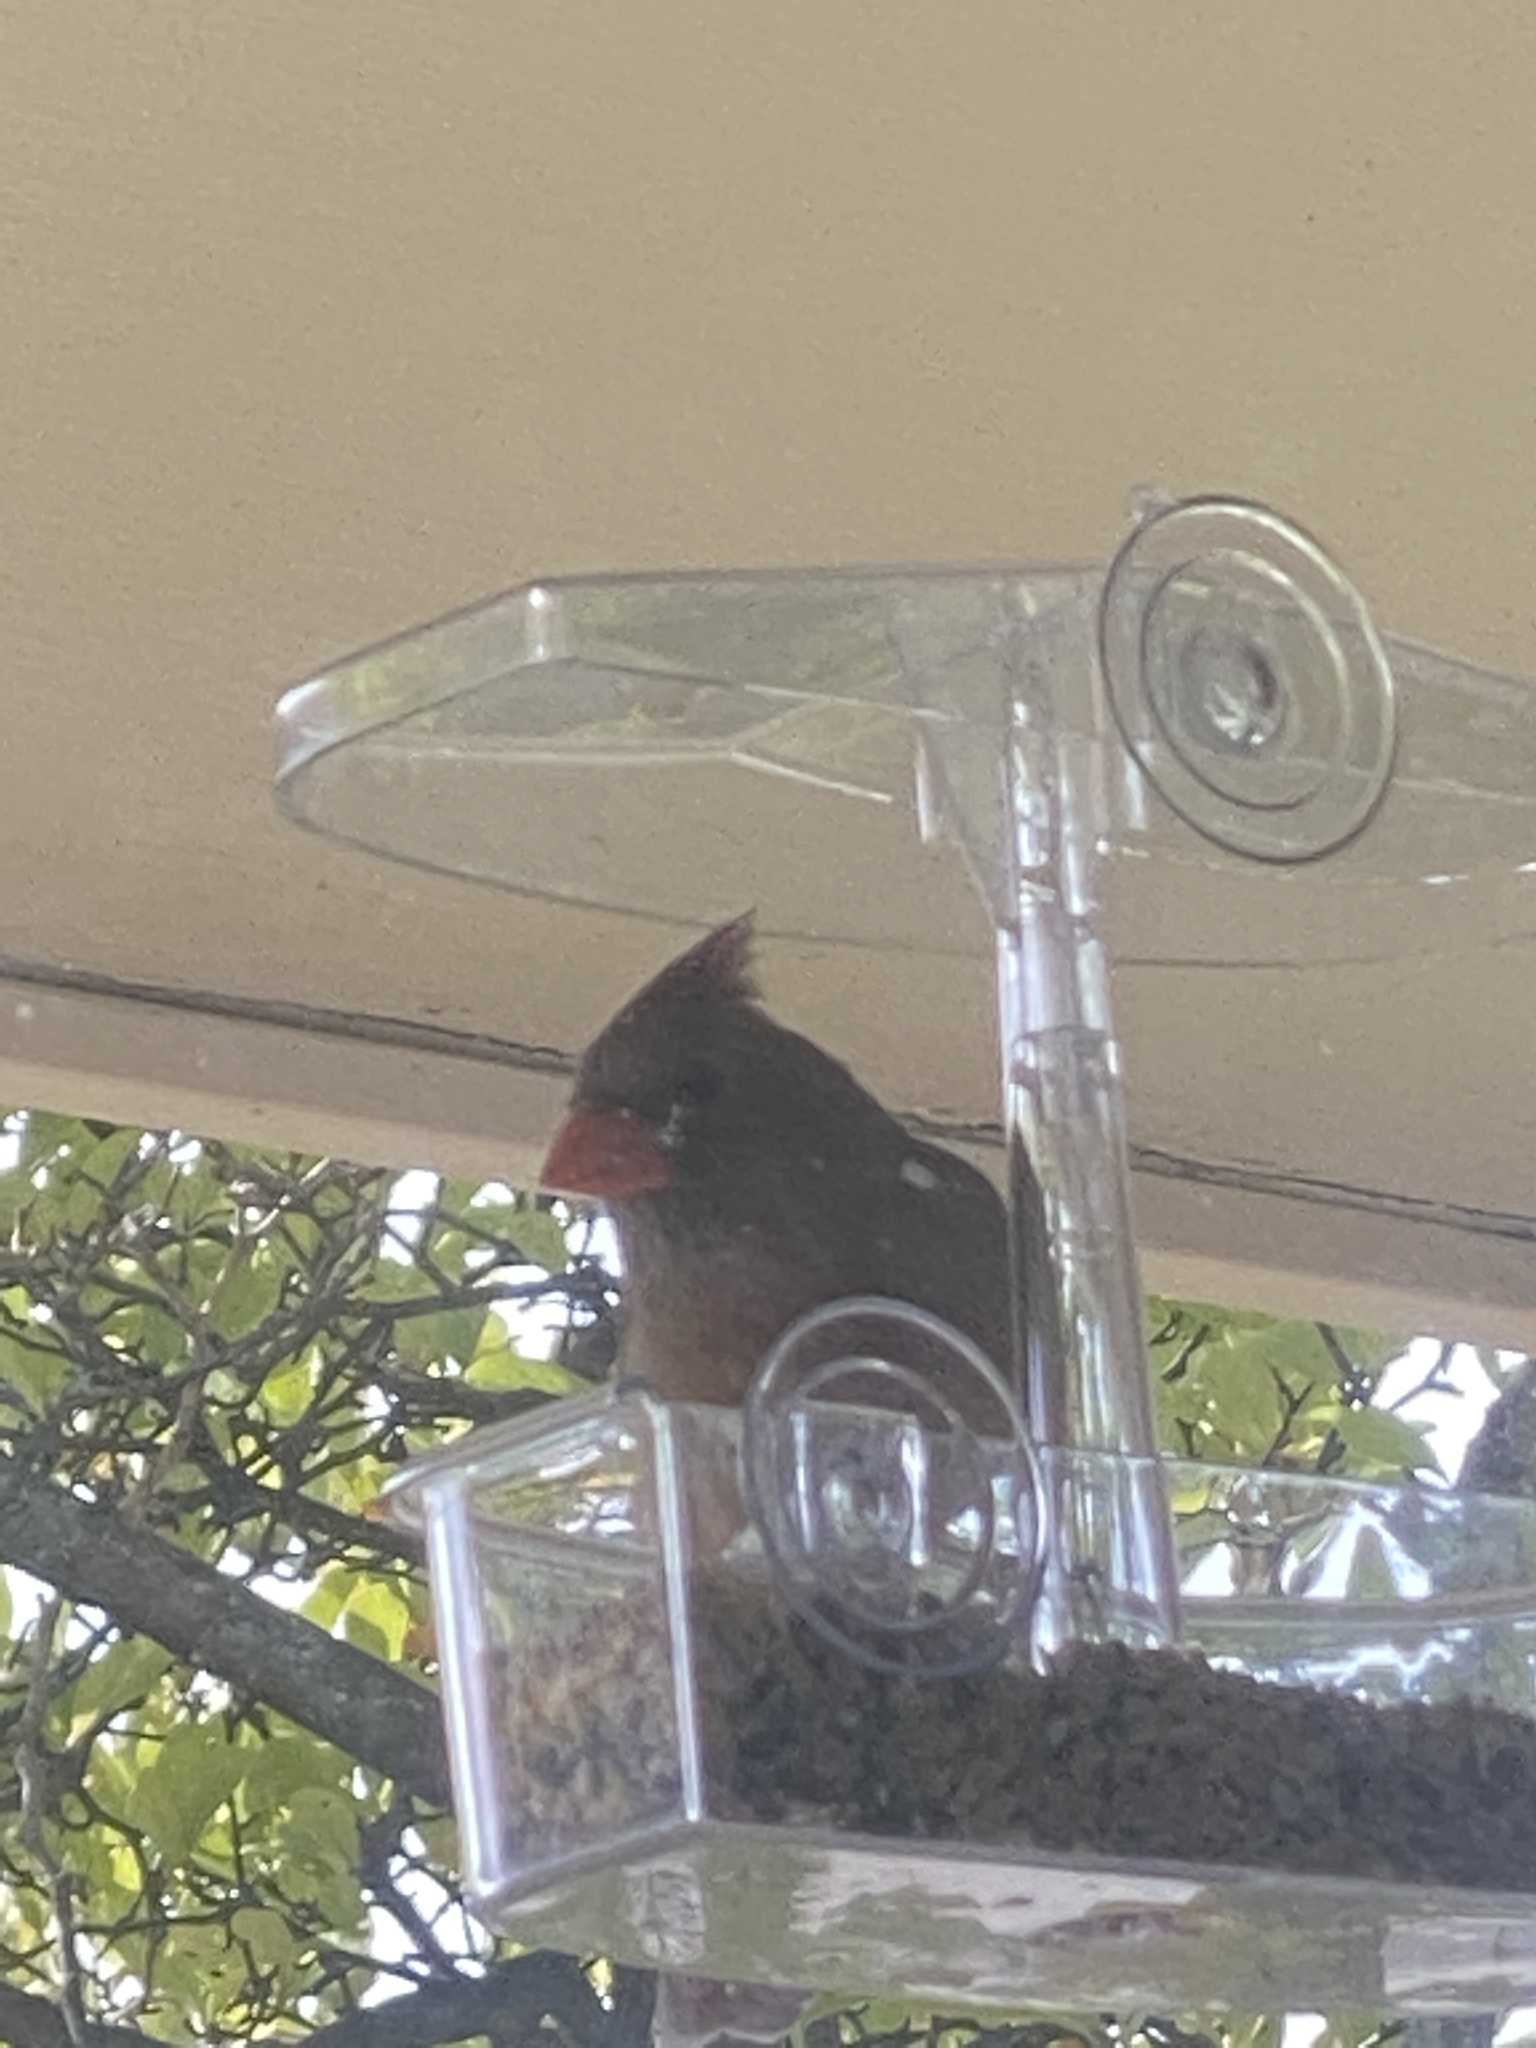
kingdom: Animalia
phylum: Chordata
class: Aves
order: Passeriformes
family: Cardinalidae
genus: Cardinalis
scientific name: Cardinalis cardinalis
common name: Northern cardinal
